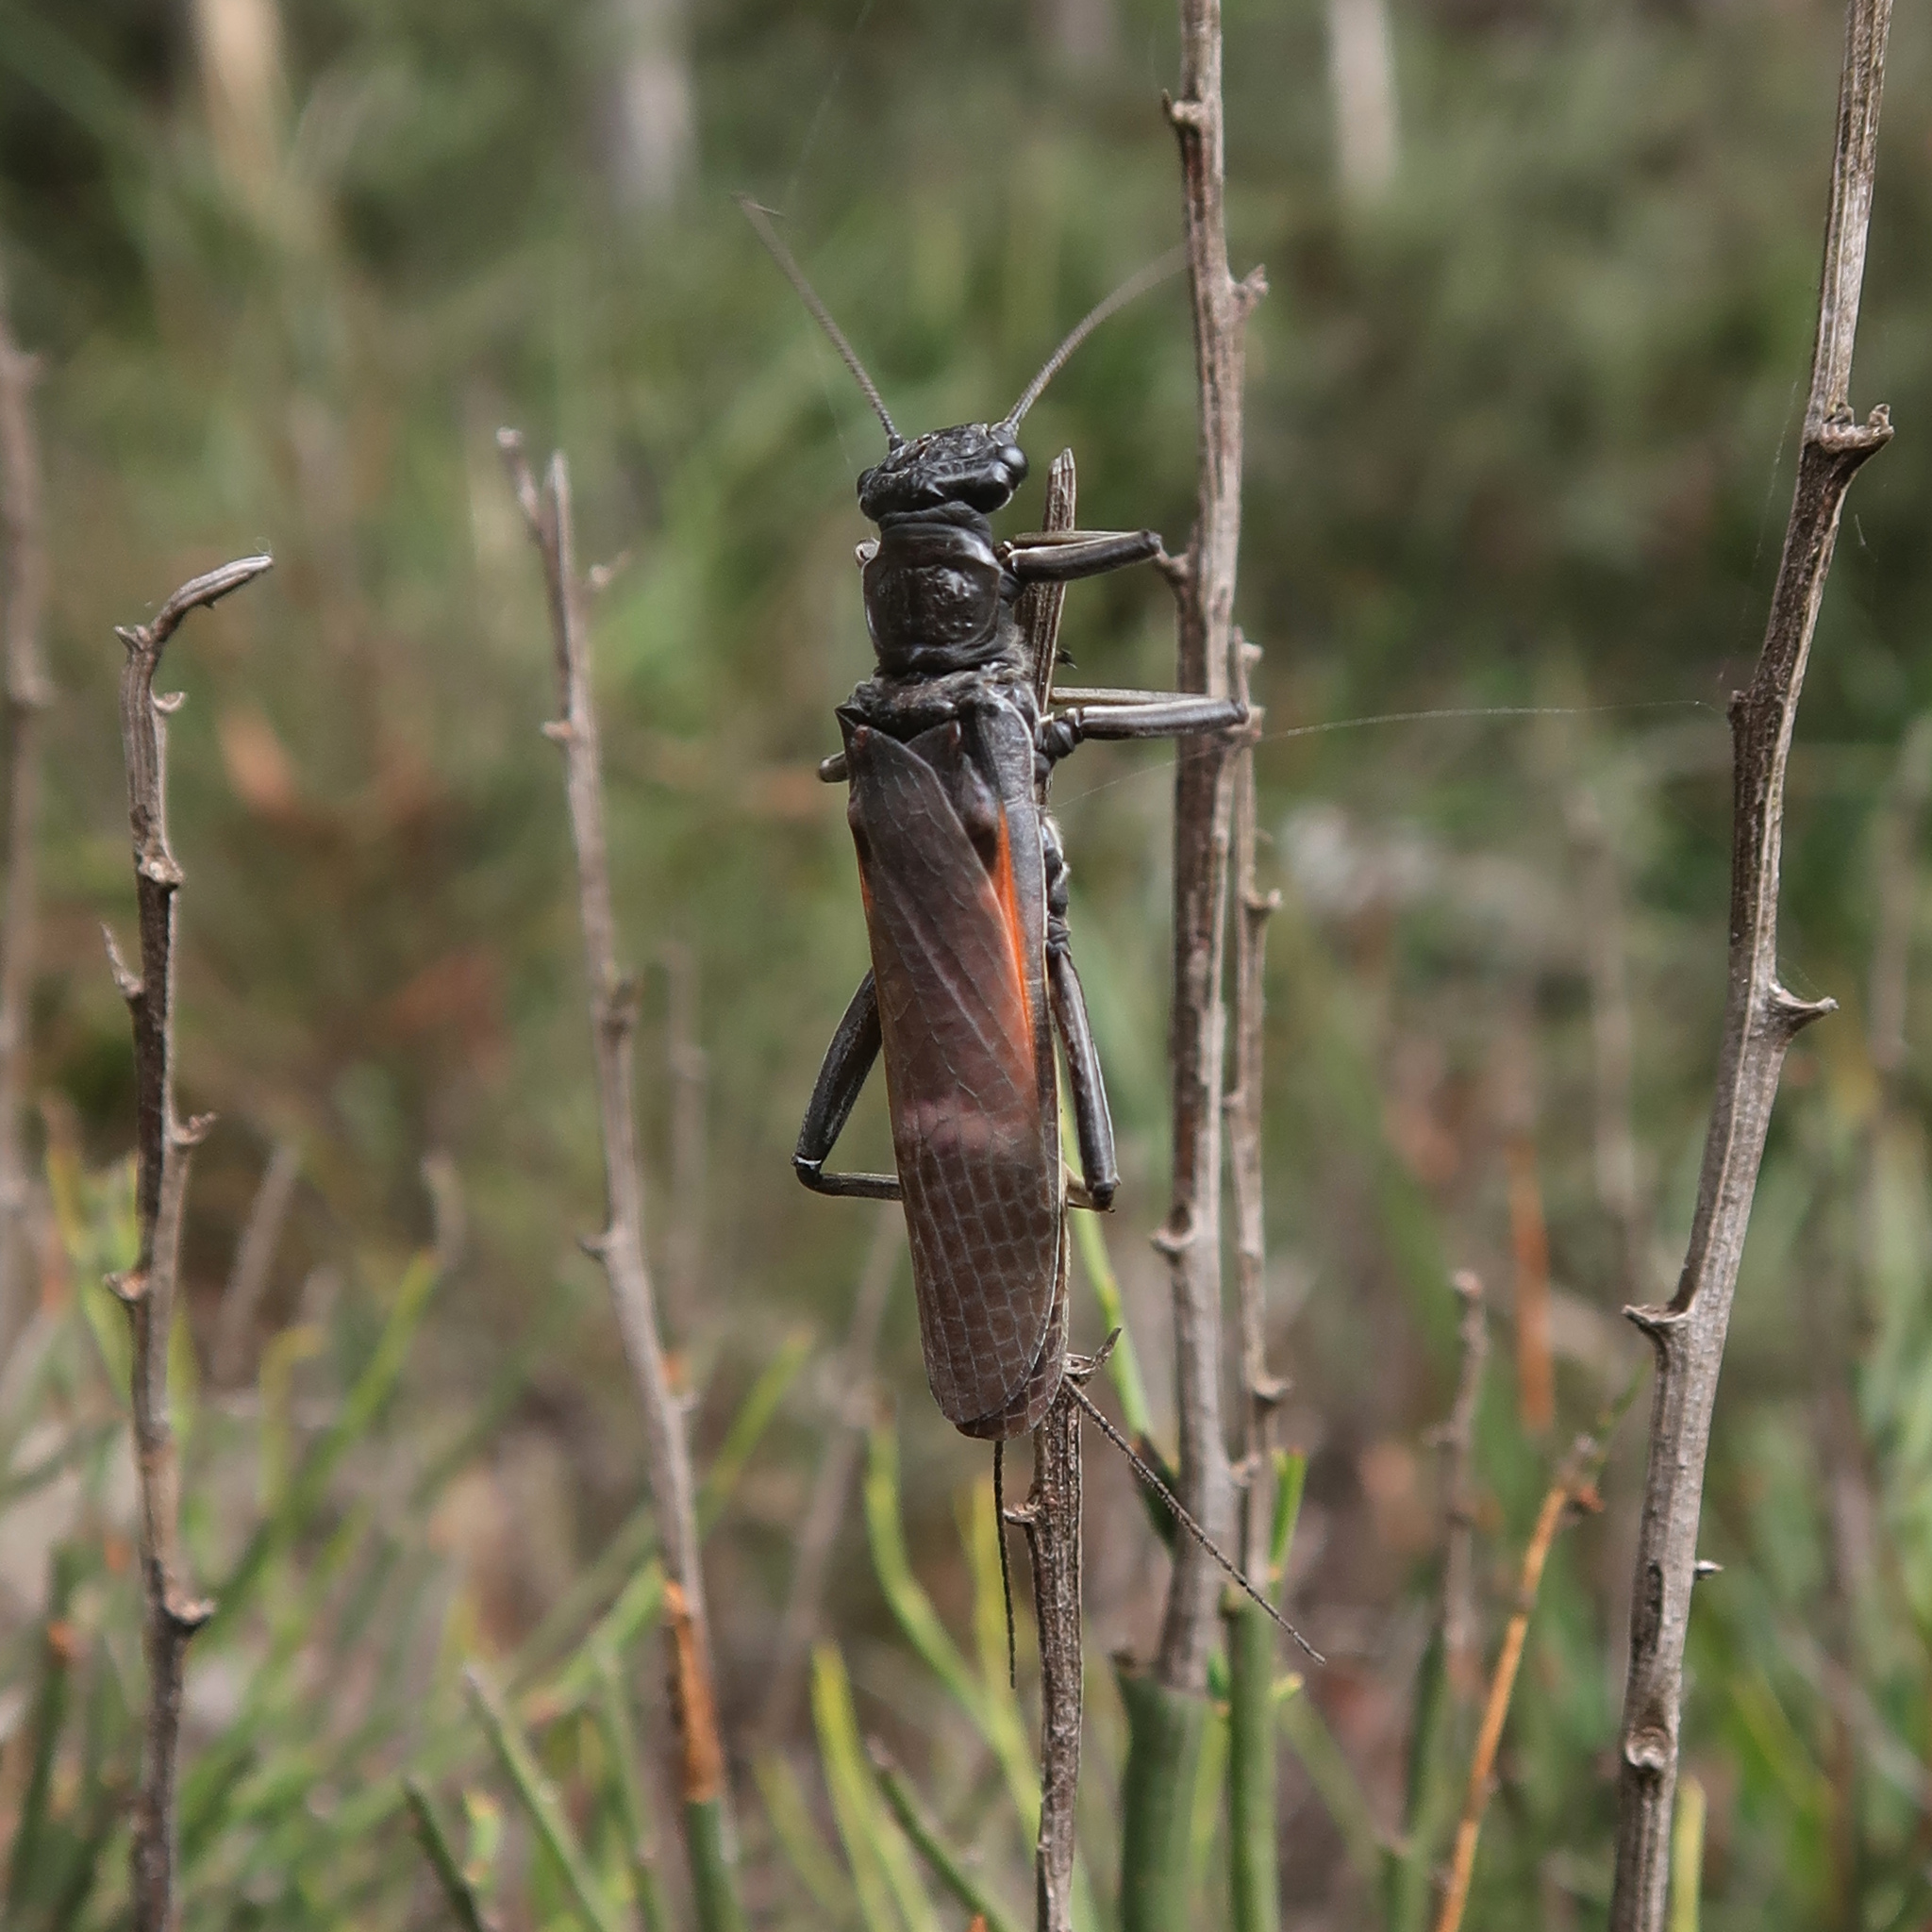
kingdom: Animalia
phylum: Arthropoda
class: Insecta
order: Plecoptera
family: Eustheniidae
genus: Eusthenia
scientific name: Eusthenia lacustris
